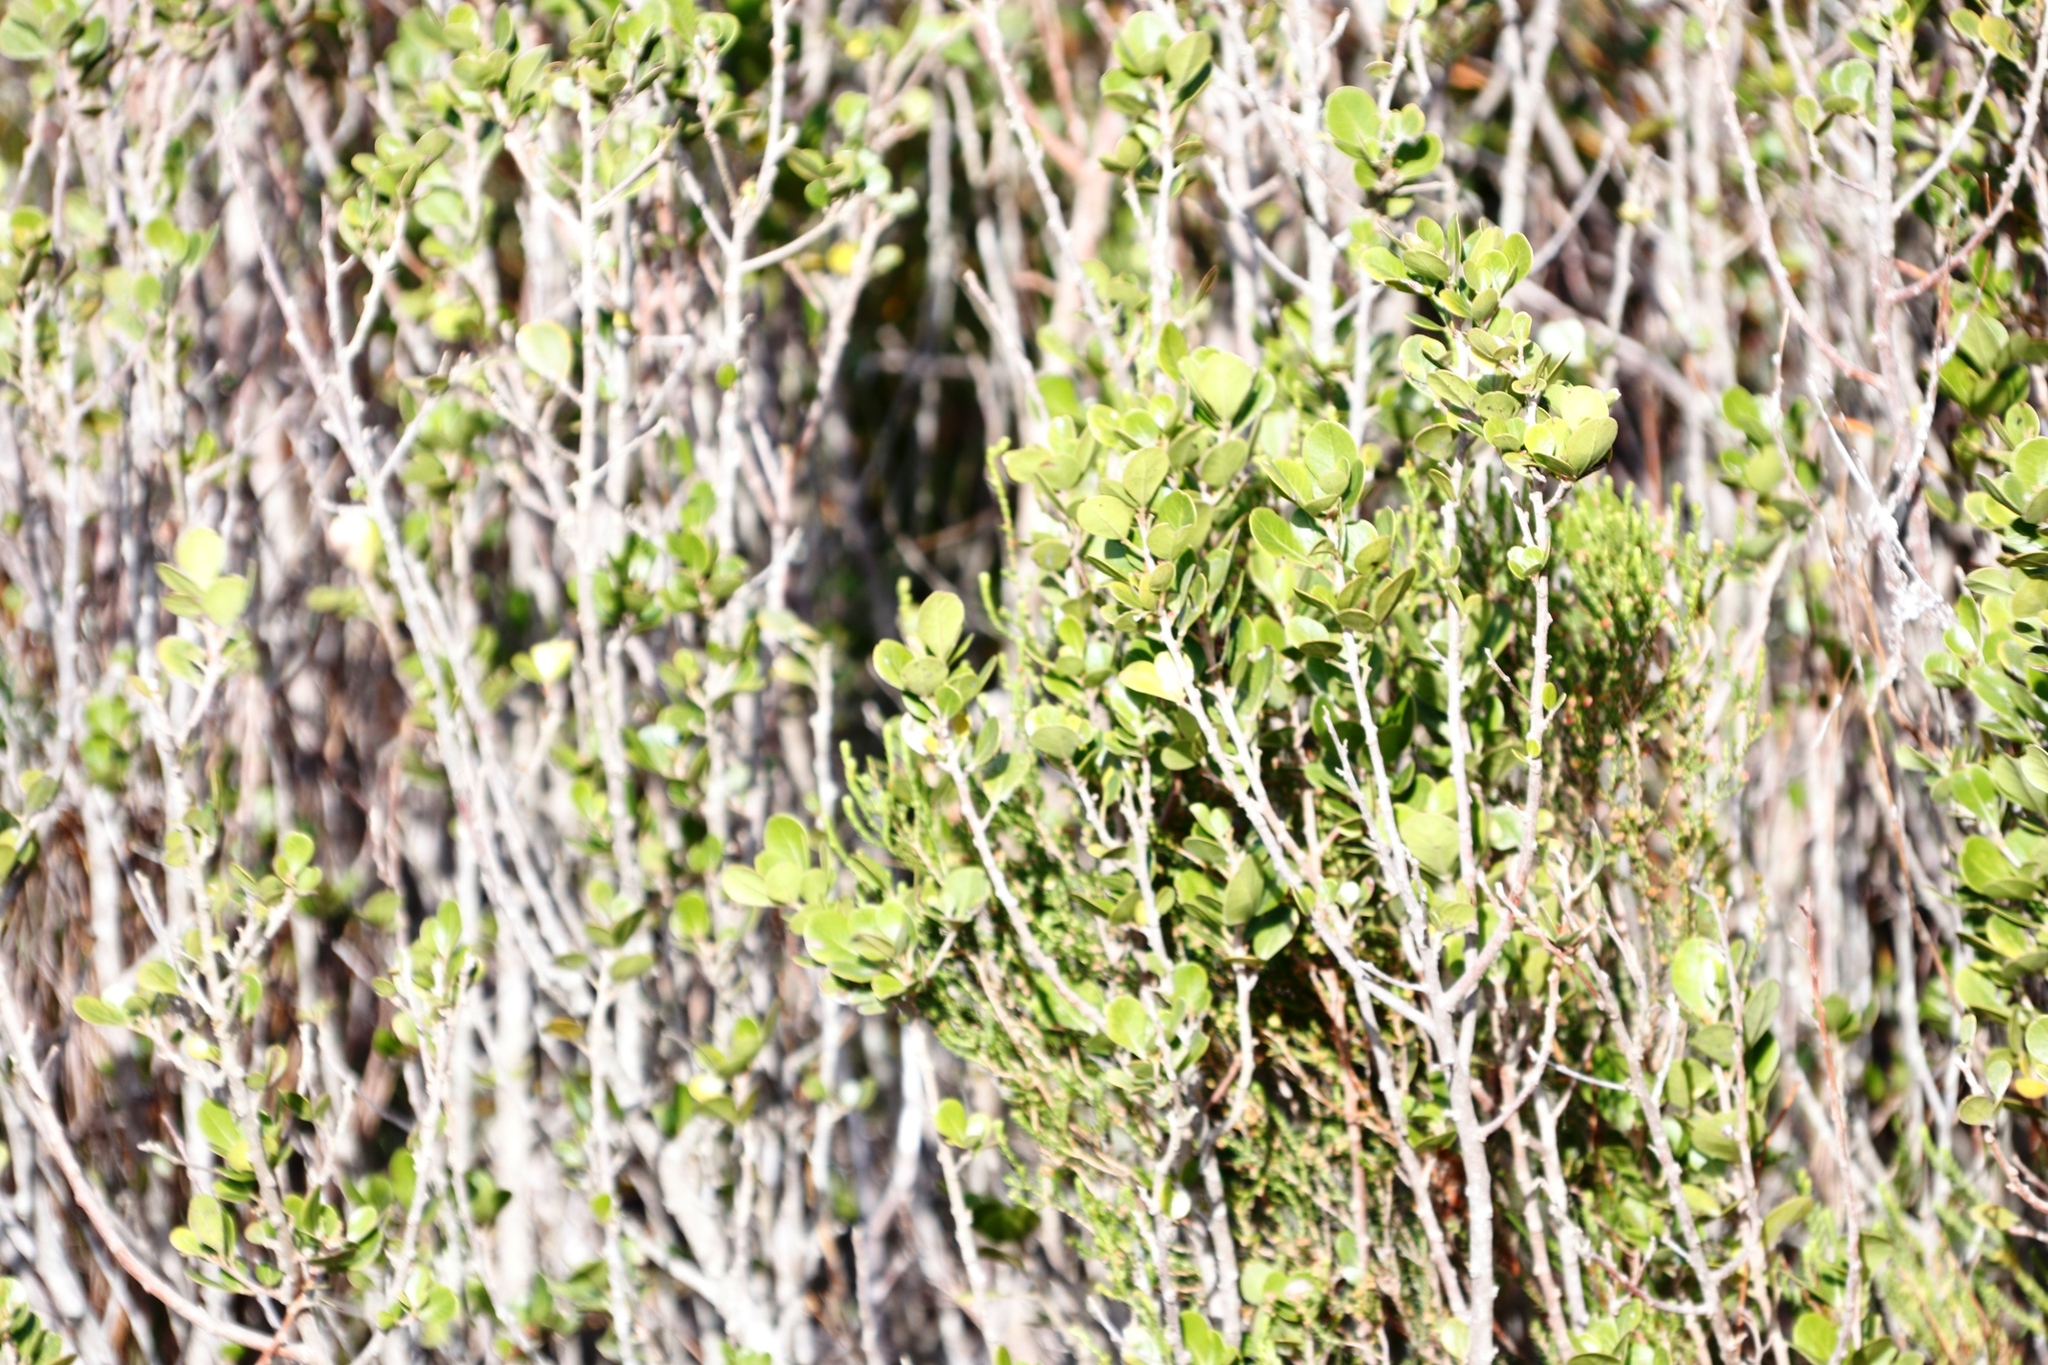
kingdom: Plantae
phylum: Tracheophyta
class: Magnoliopsida
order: Sapindales
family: Anacardiaceae
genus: Searsia
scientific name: Searsia lucida
